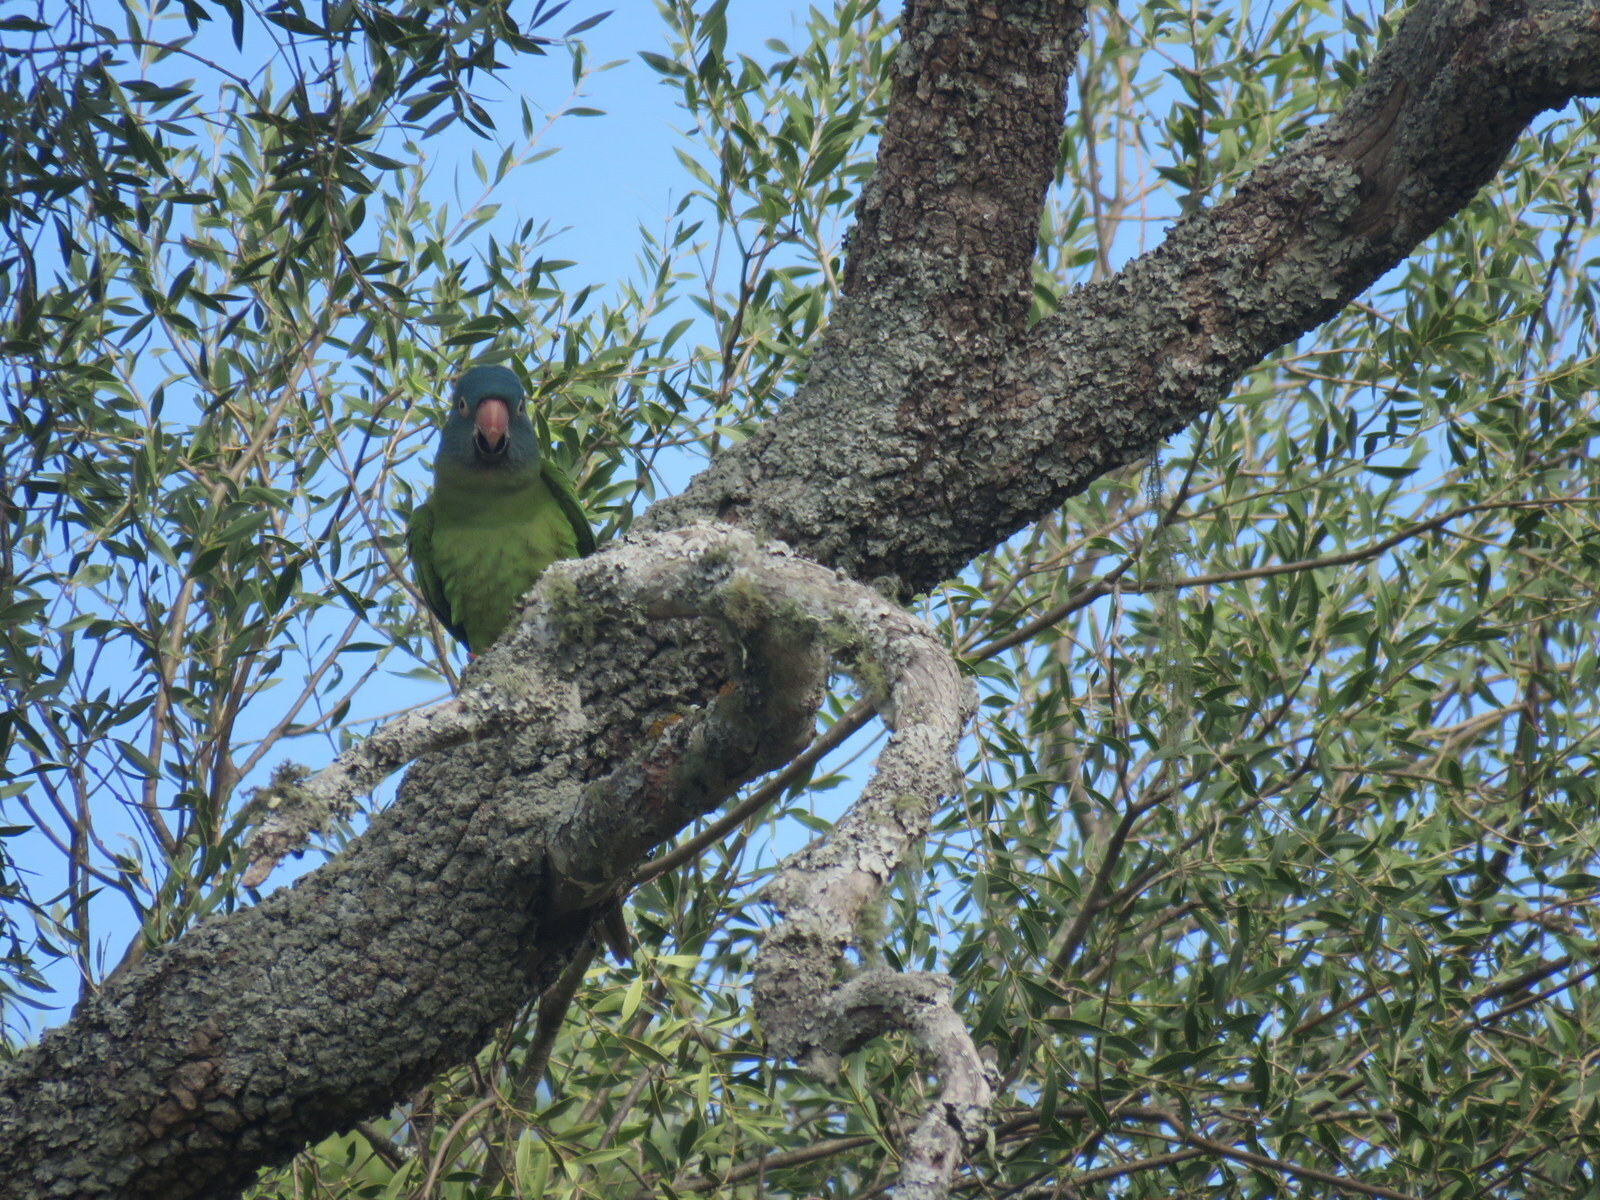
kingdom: Animalia
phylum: Chordata
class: Aves
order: Psittaciformes
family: Psittacidae
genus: Aratinga
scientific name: Aratinga acuticaudata
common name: Blue-crowned parakeet
